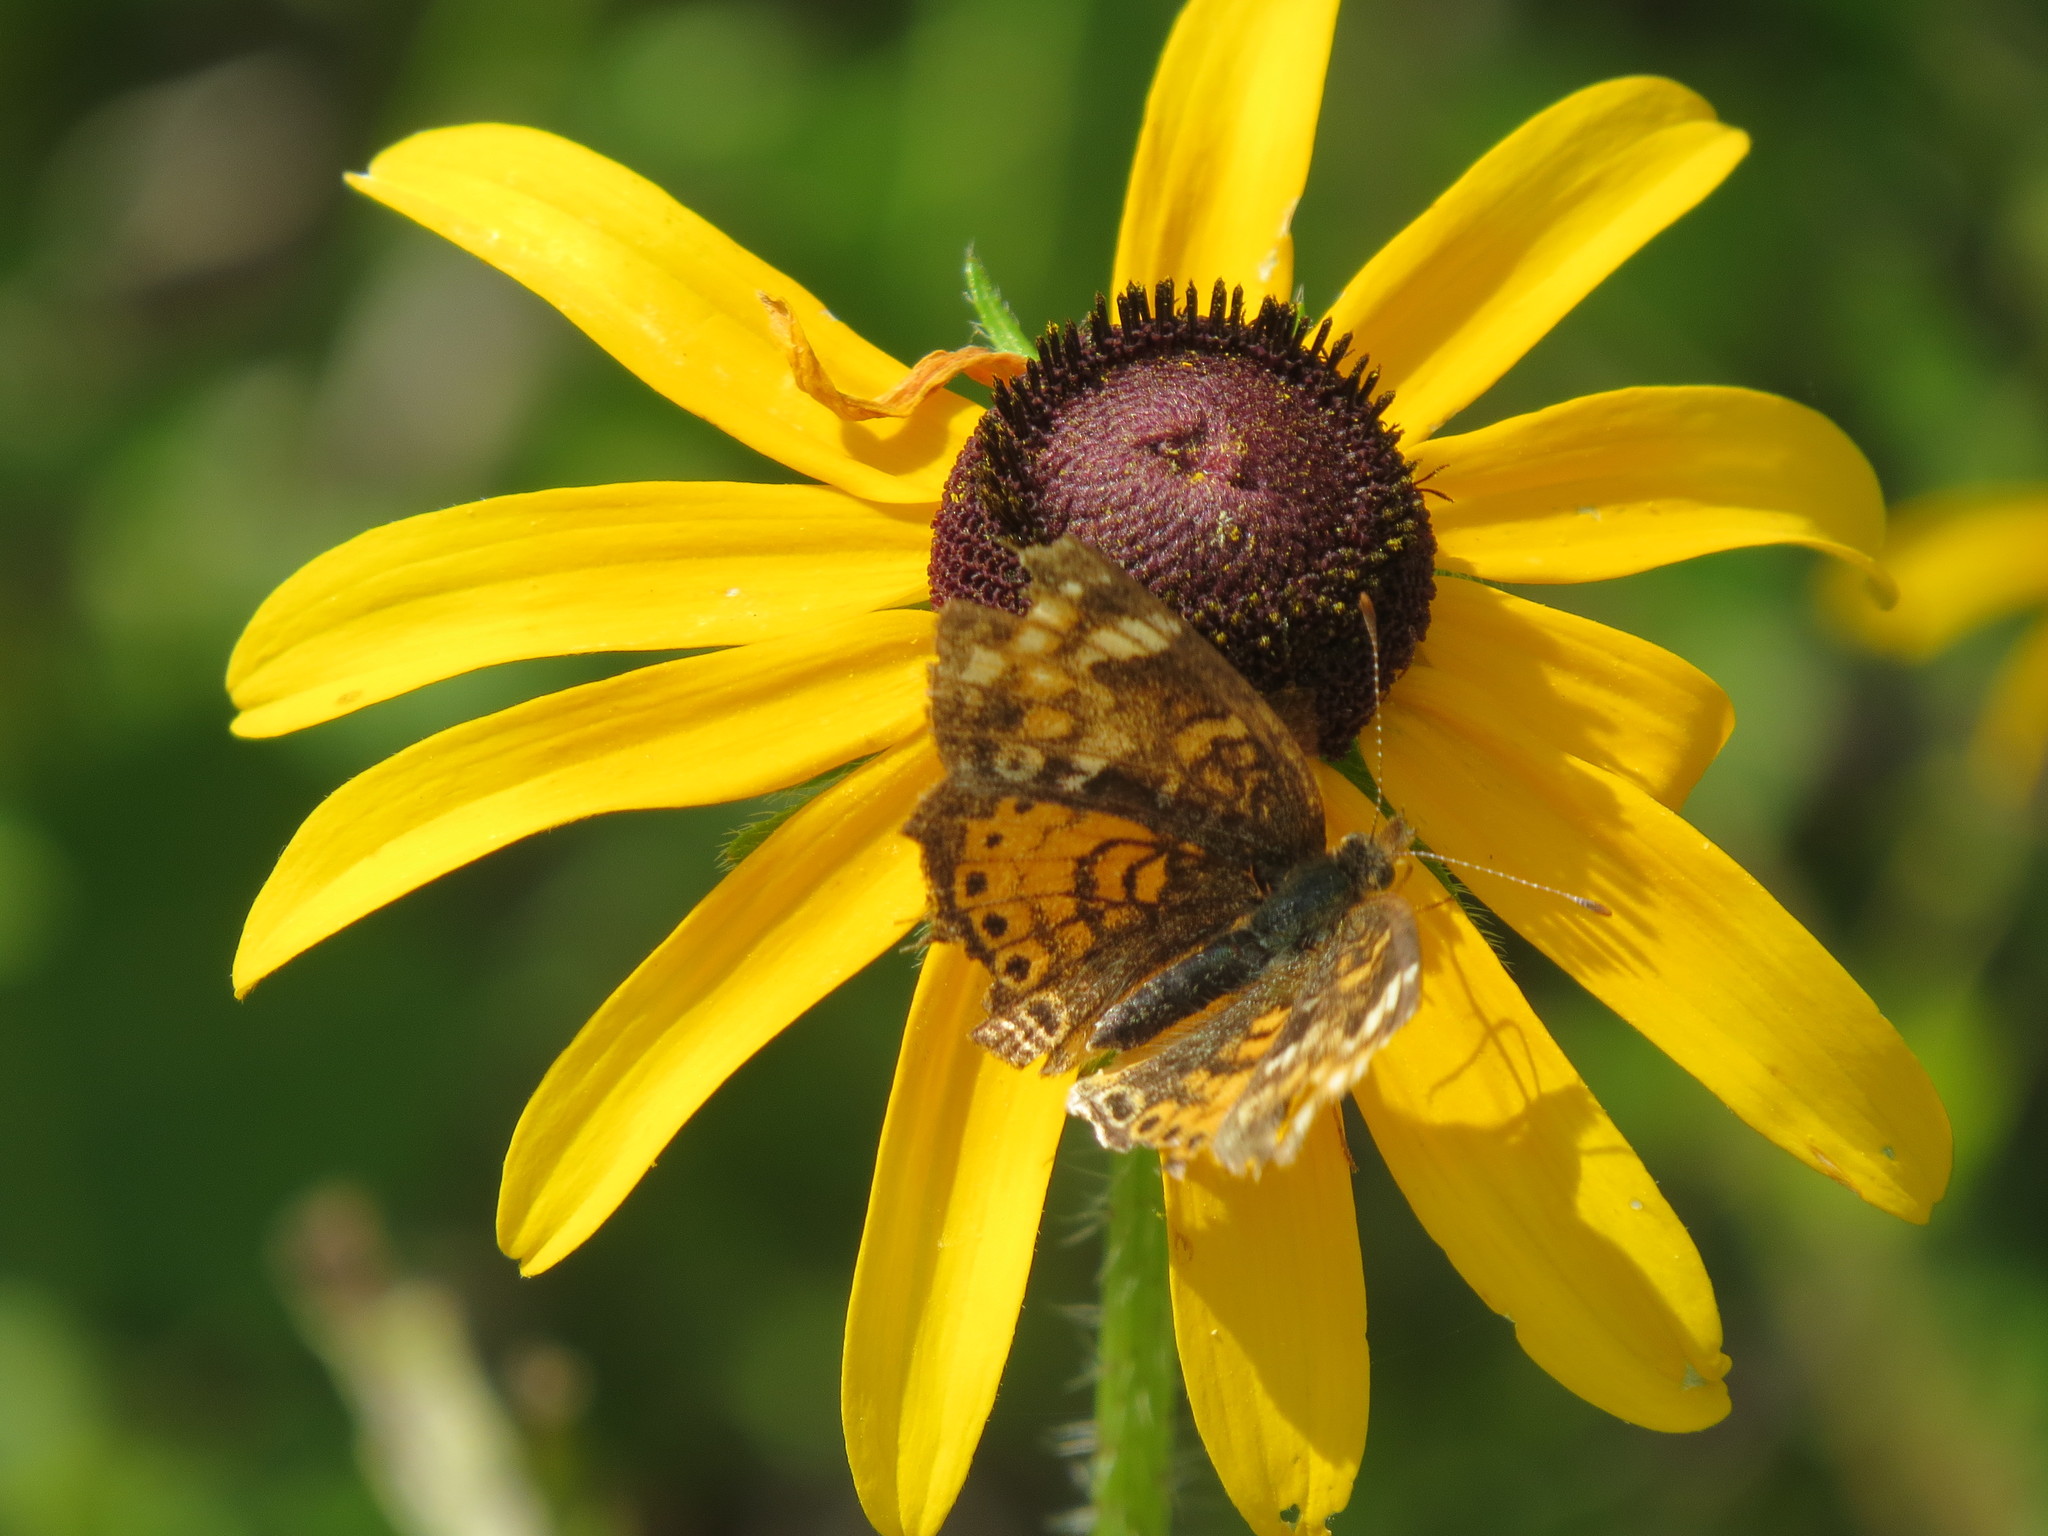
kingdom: Animalia
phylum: Arthropoda
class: Insecta
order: Lepidoptera
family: Nymphalidae
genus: Phyciodes
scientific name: Phyciodes tharos
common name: Pearl crescent
